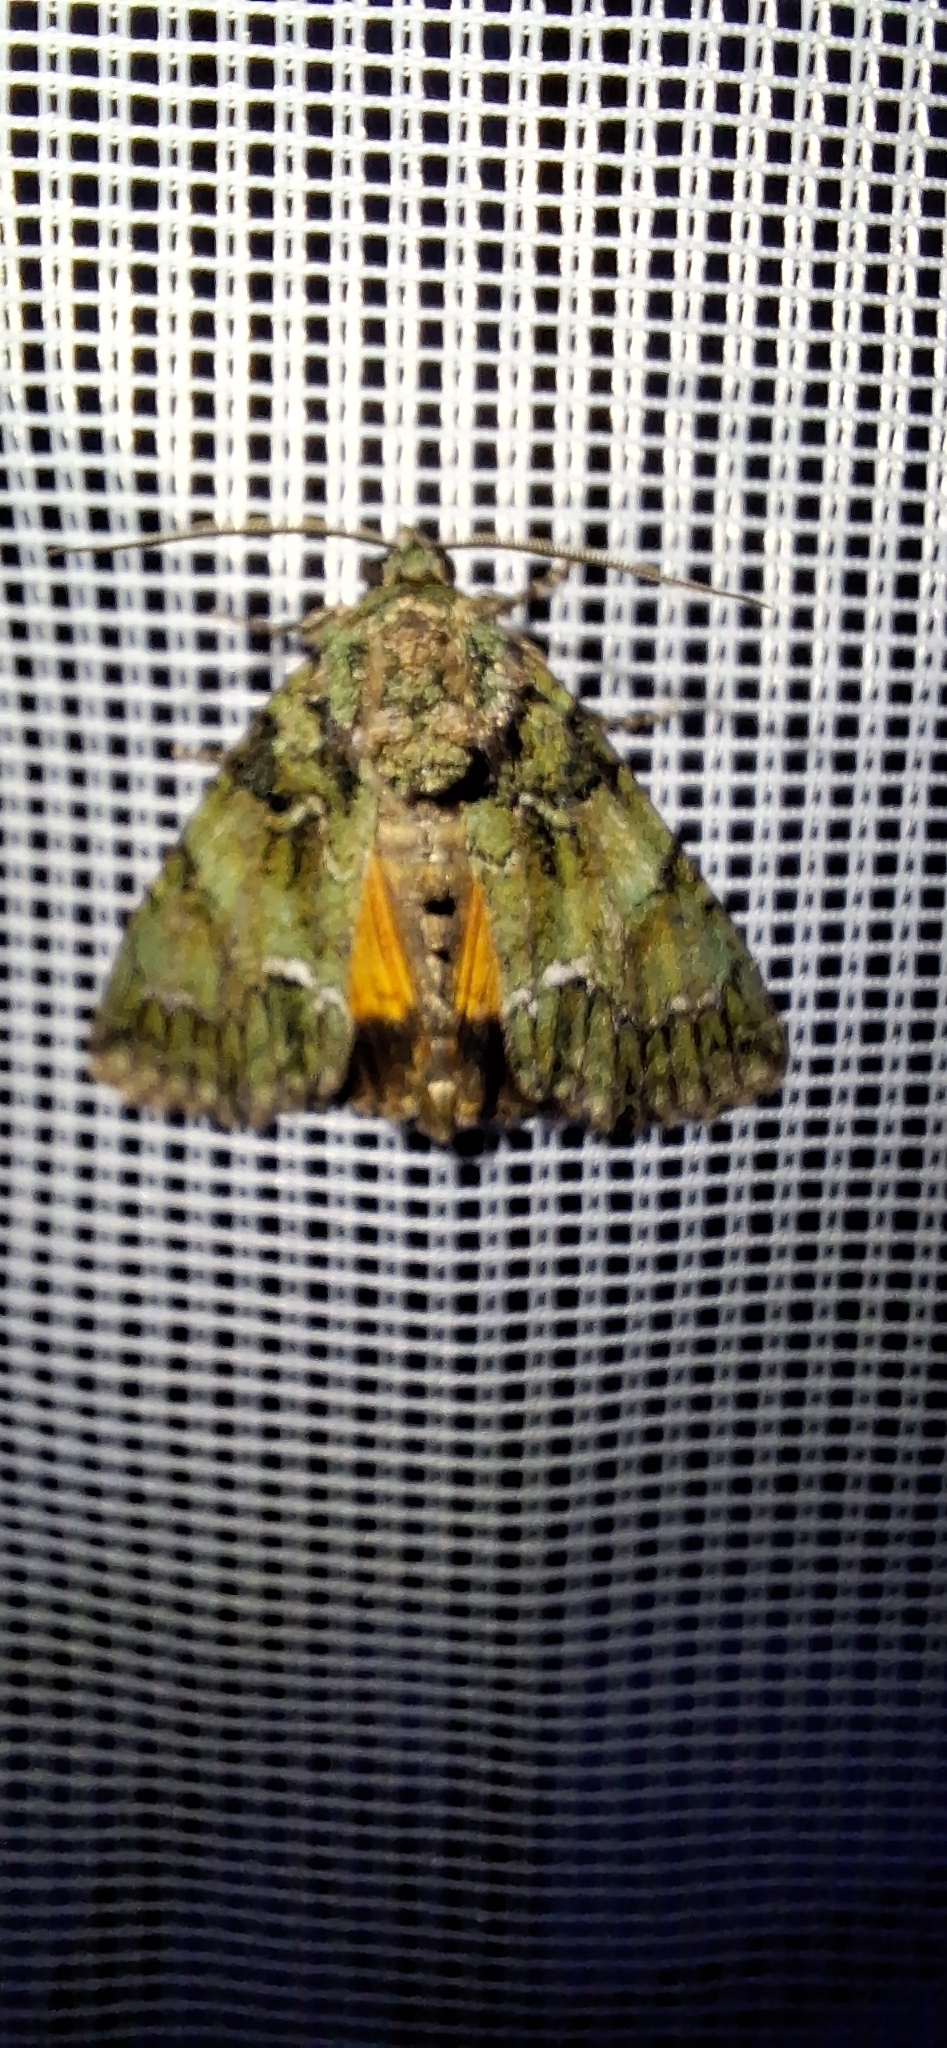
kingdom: Animalia
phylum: Arthropoda
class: Insecta
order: Lepidoptera
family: Noctuidae
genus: Polyphaenis
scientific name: Polyphaenis sericata
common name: Guernsey underwing
